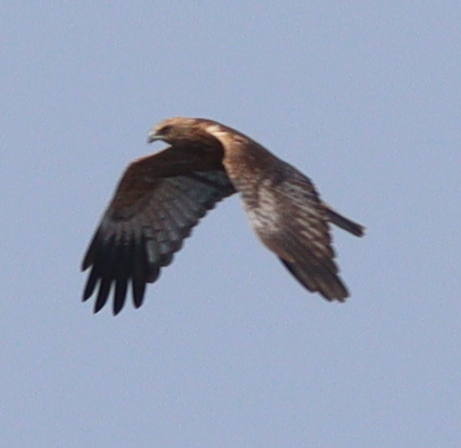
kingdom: Animalia
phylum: Chordata
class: Aves
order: Accipitriformes
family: Accipitridae
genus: Circus
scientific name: Circus aeruginosus
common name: Western marsh harrier
